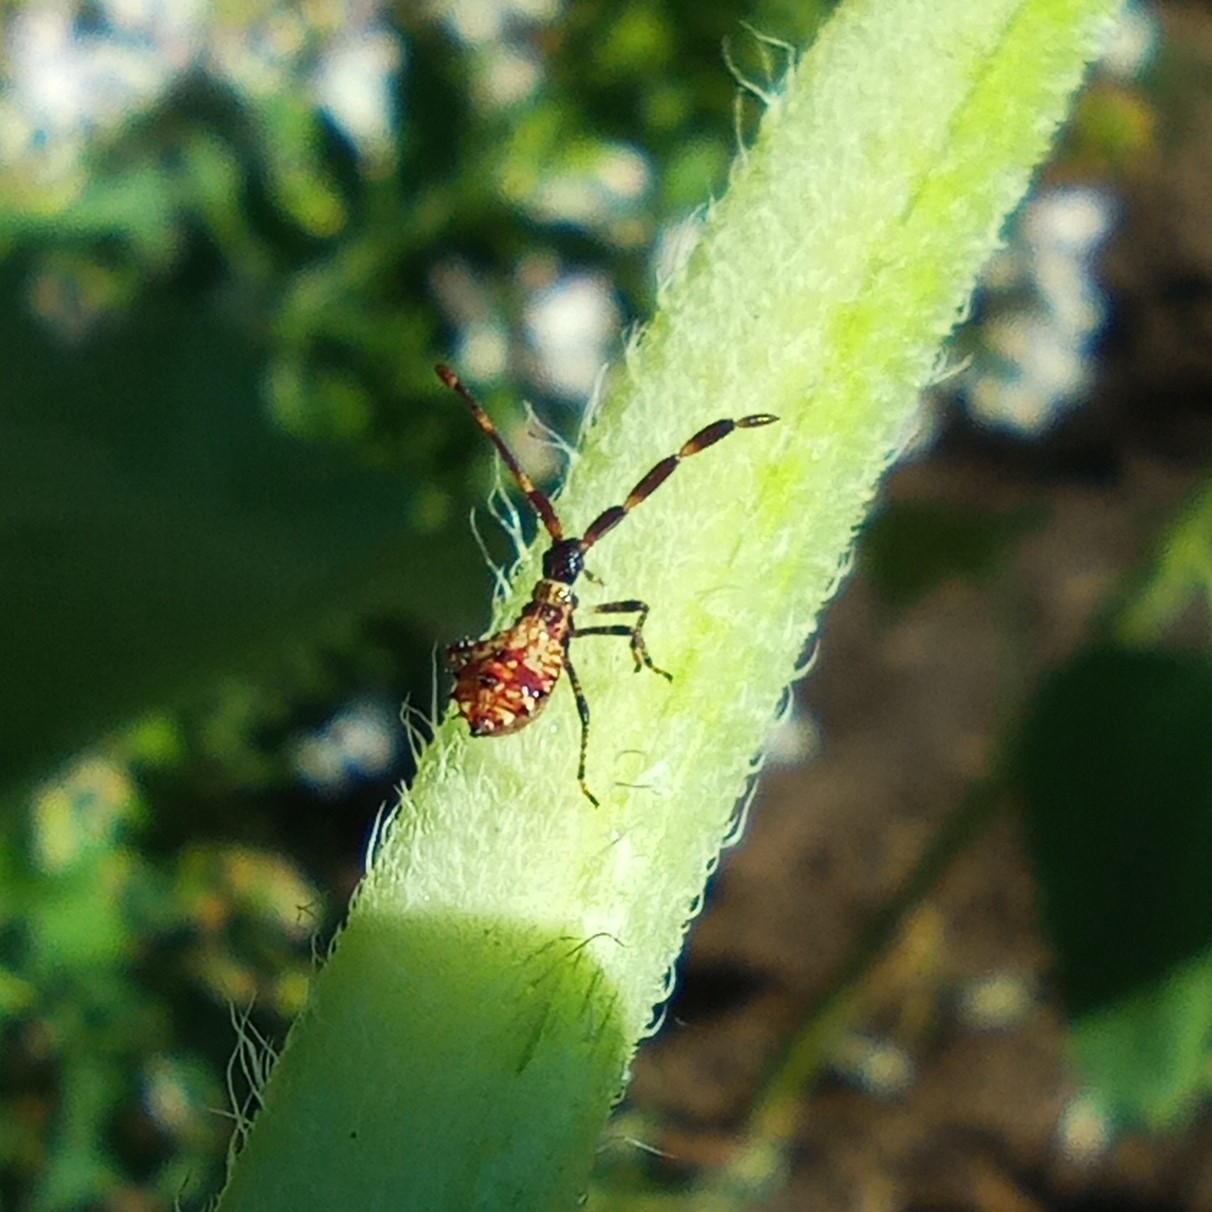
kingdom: Animalia
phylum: Arthropoda
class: Insecta
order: Hemiptera
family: Coreidae
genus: Coreus
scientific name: Coreus marginatus
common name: Dock bug
